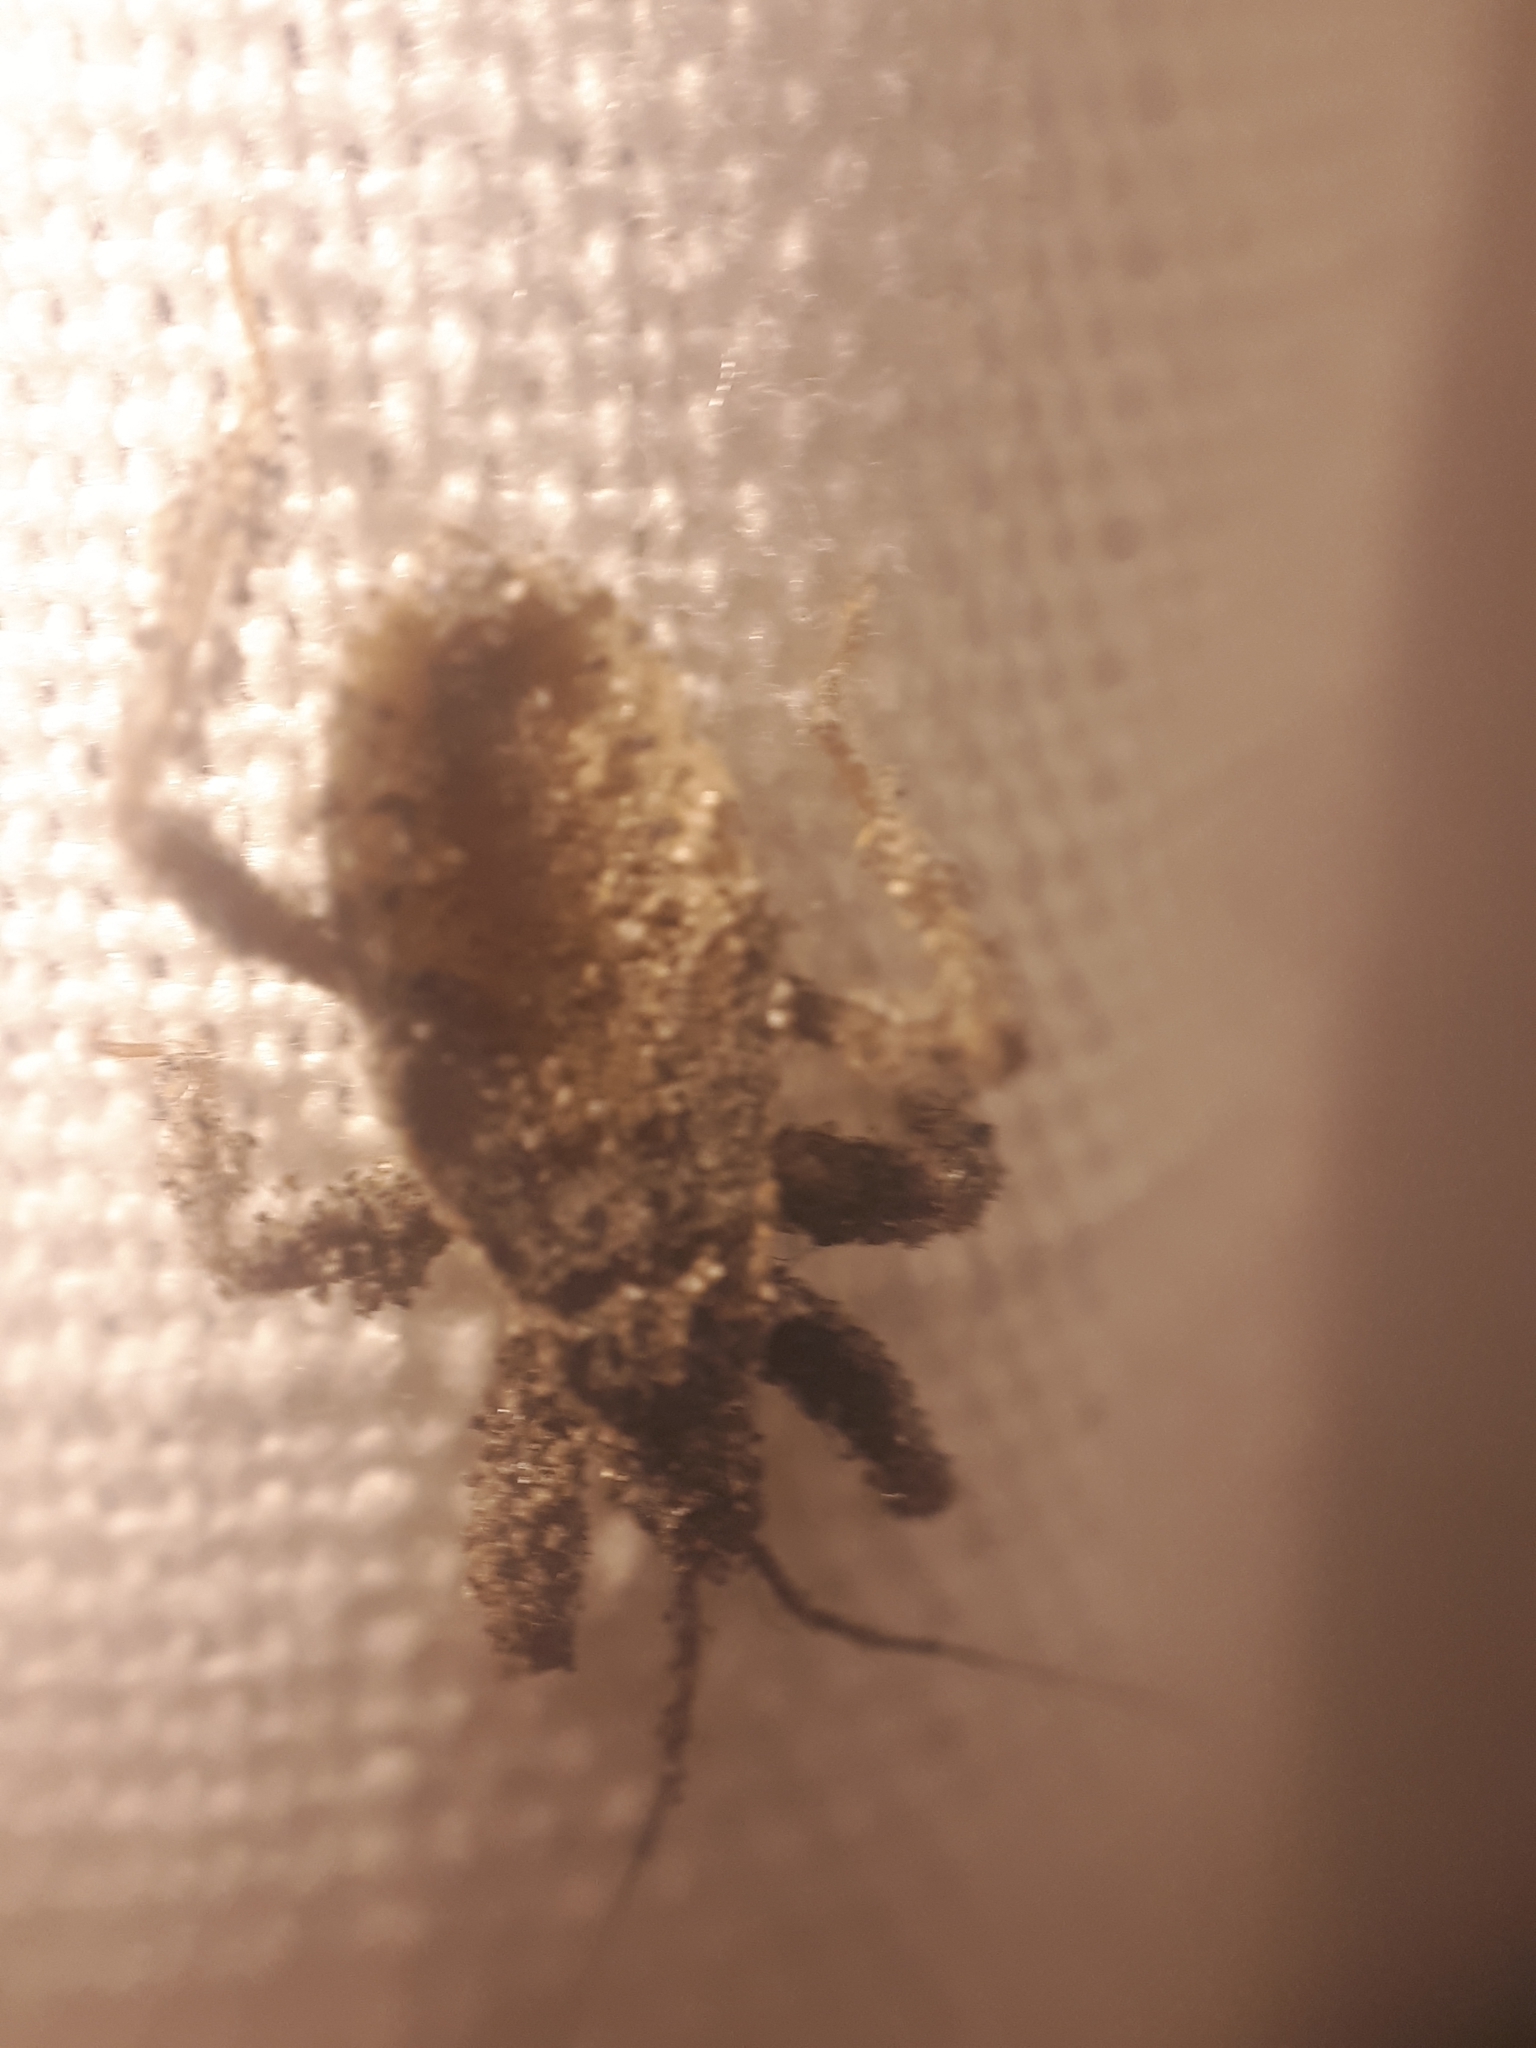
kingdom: Animalia
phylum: Arthropoda
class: Insecta
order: Hemiptera
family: Reduviidae
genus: Reduvius
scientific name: Reduvius personatus
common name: Masked hunter
